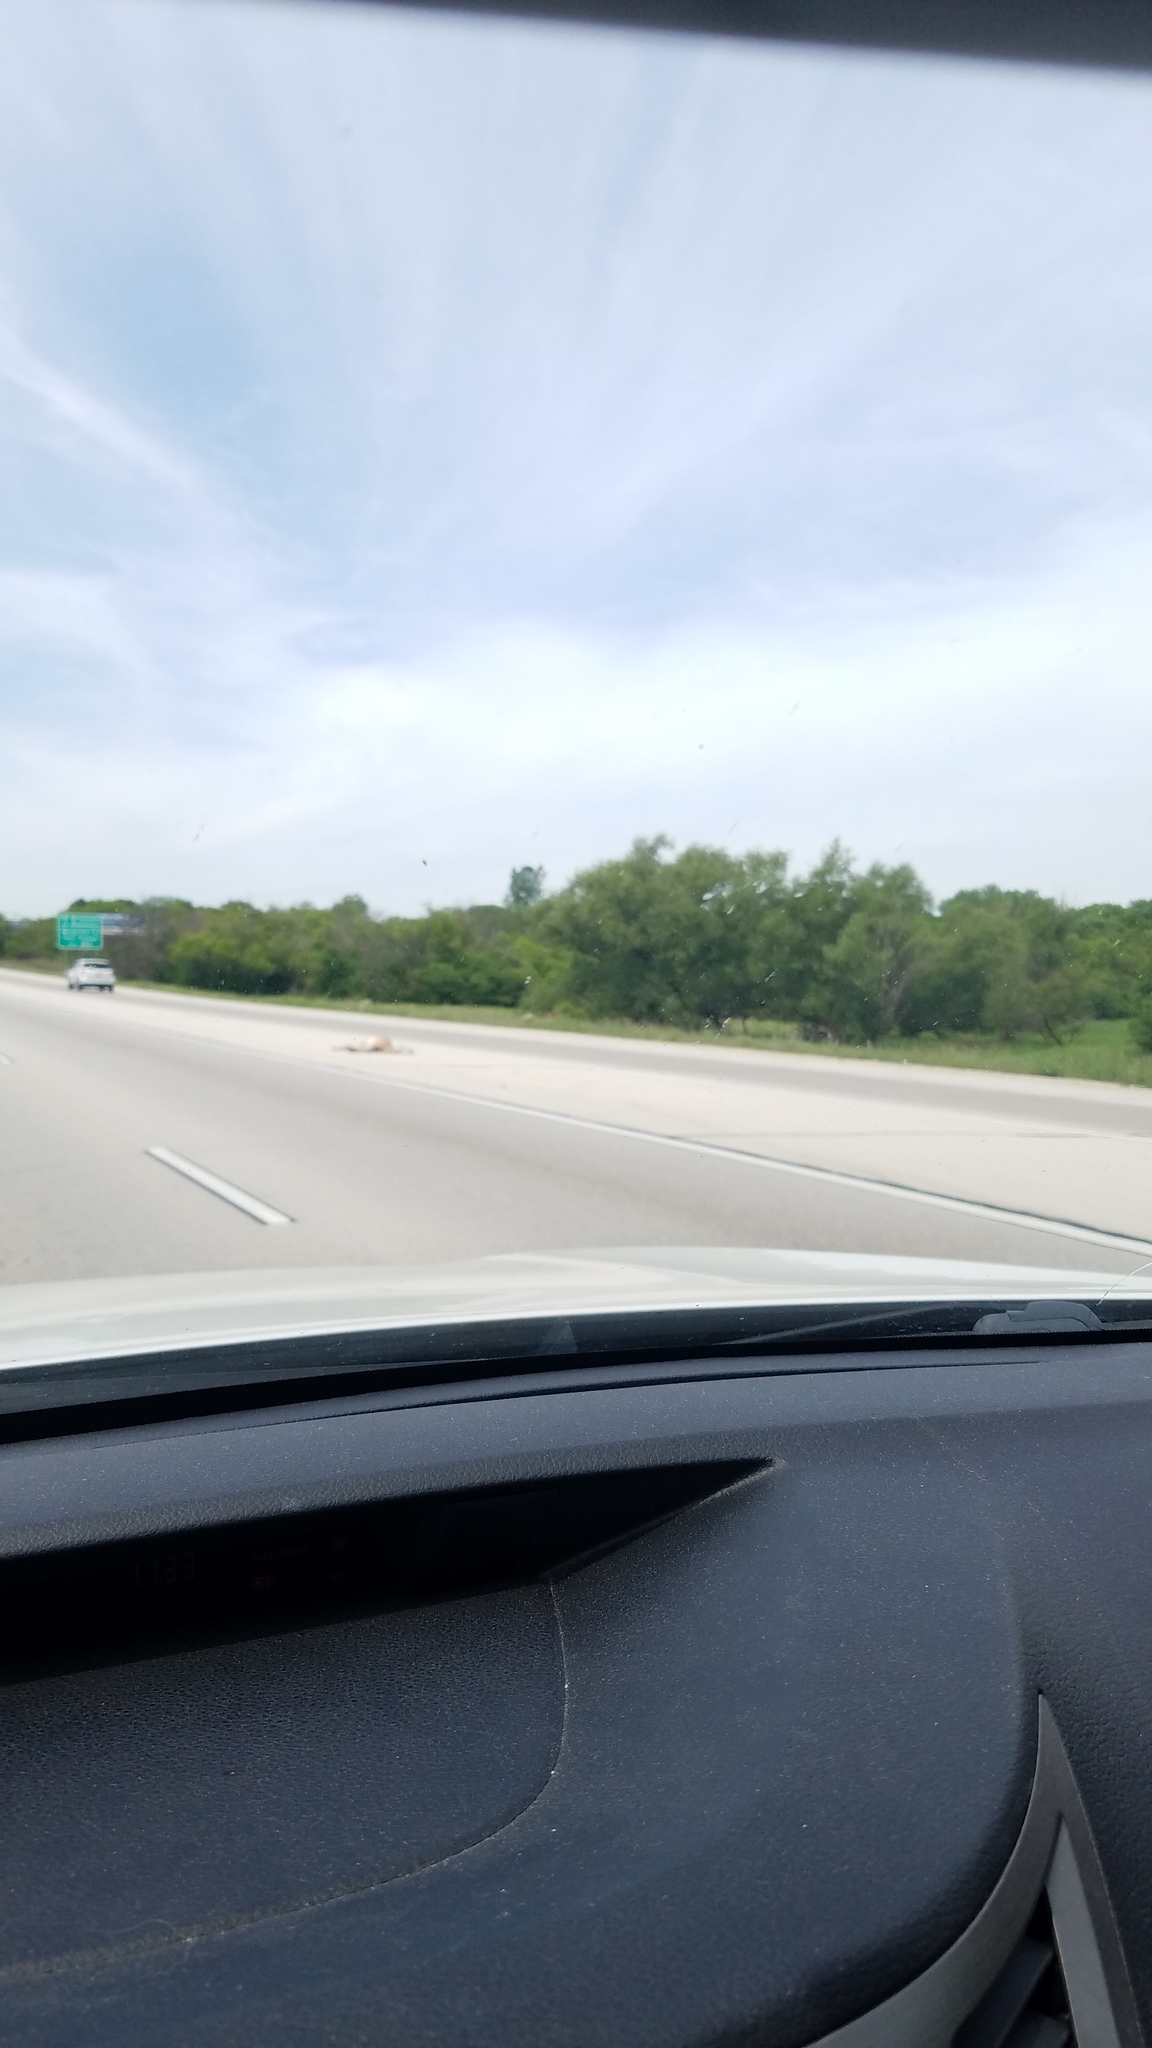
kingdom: Animalia
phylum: Chordata
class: Mammalia
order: Artiodactyla
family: Cervidae
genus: Odocoileus
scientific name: Odocoileus virginianus
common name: White-tailed deer
